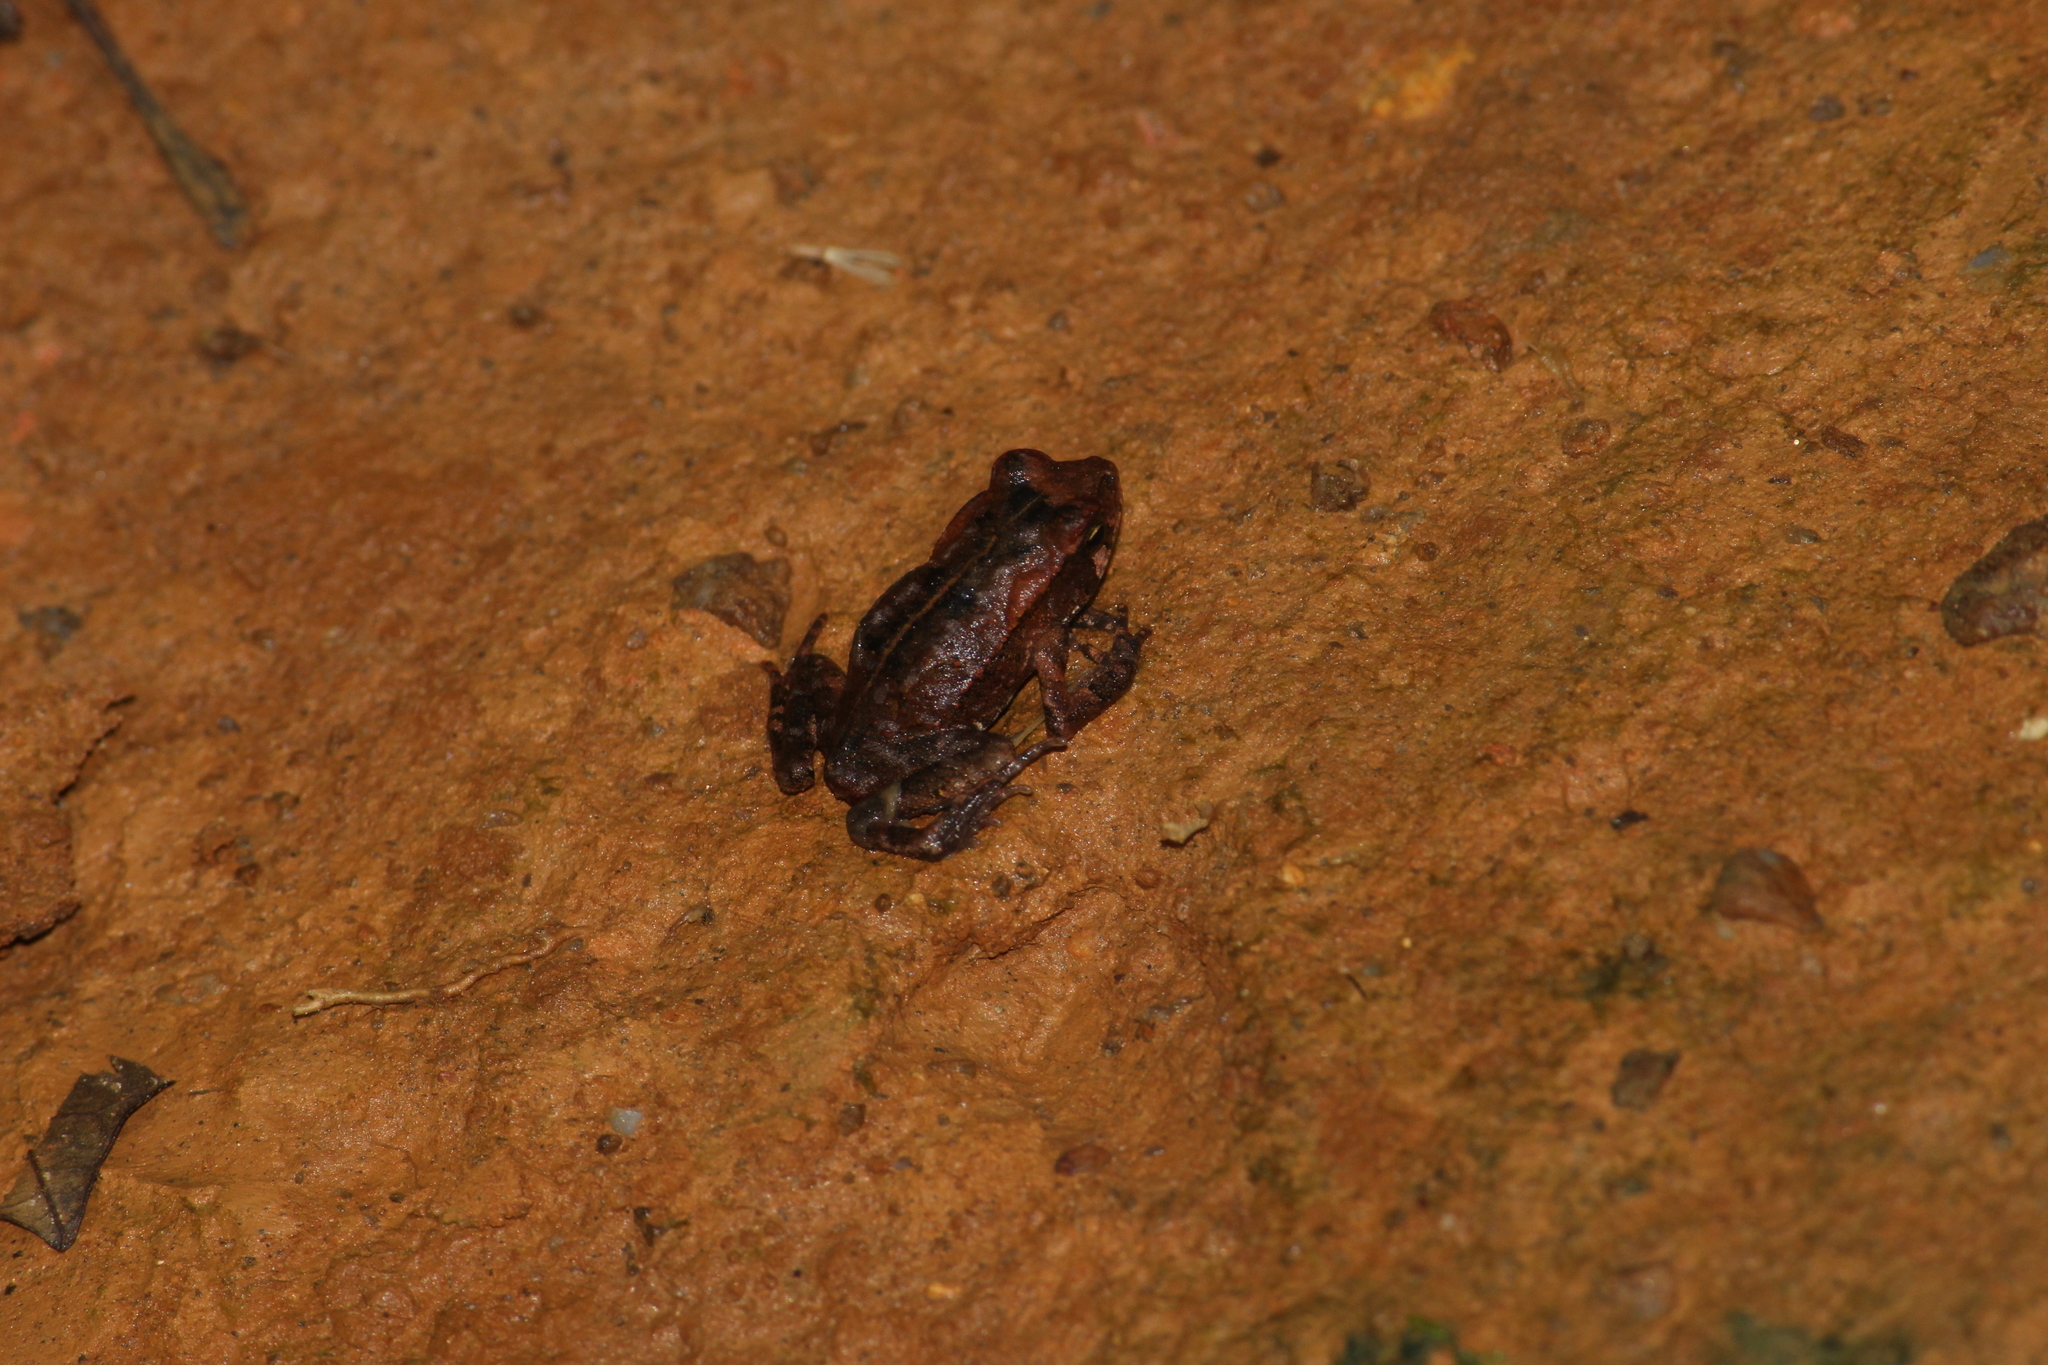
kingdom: Animalia
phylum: Chordata
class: Amphibia
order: Anura
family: Bufonidae
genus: Rhinella
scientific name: Rhinella ornata
